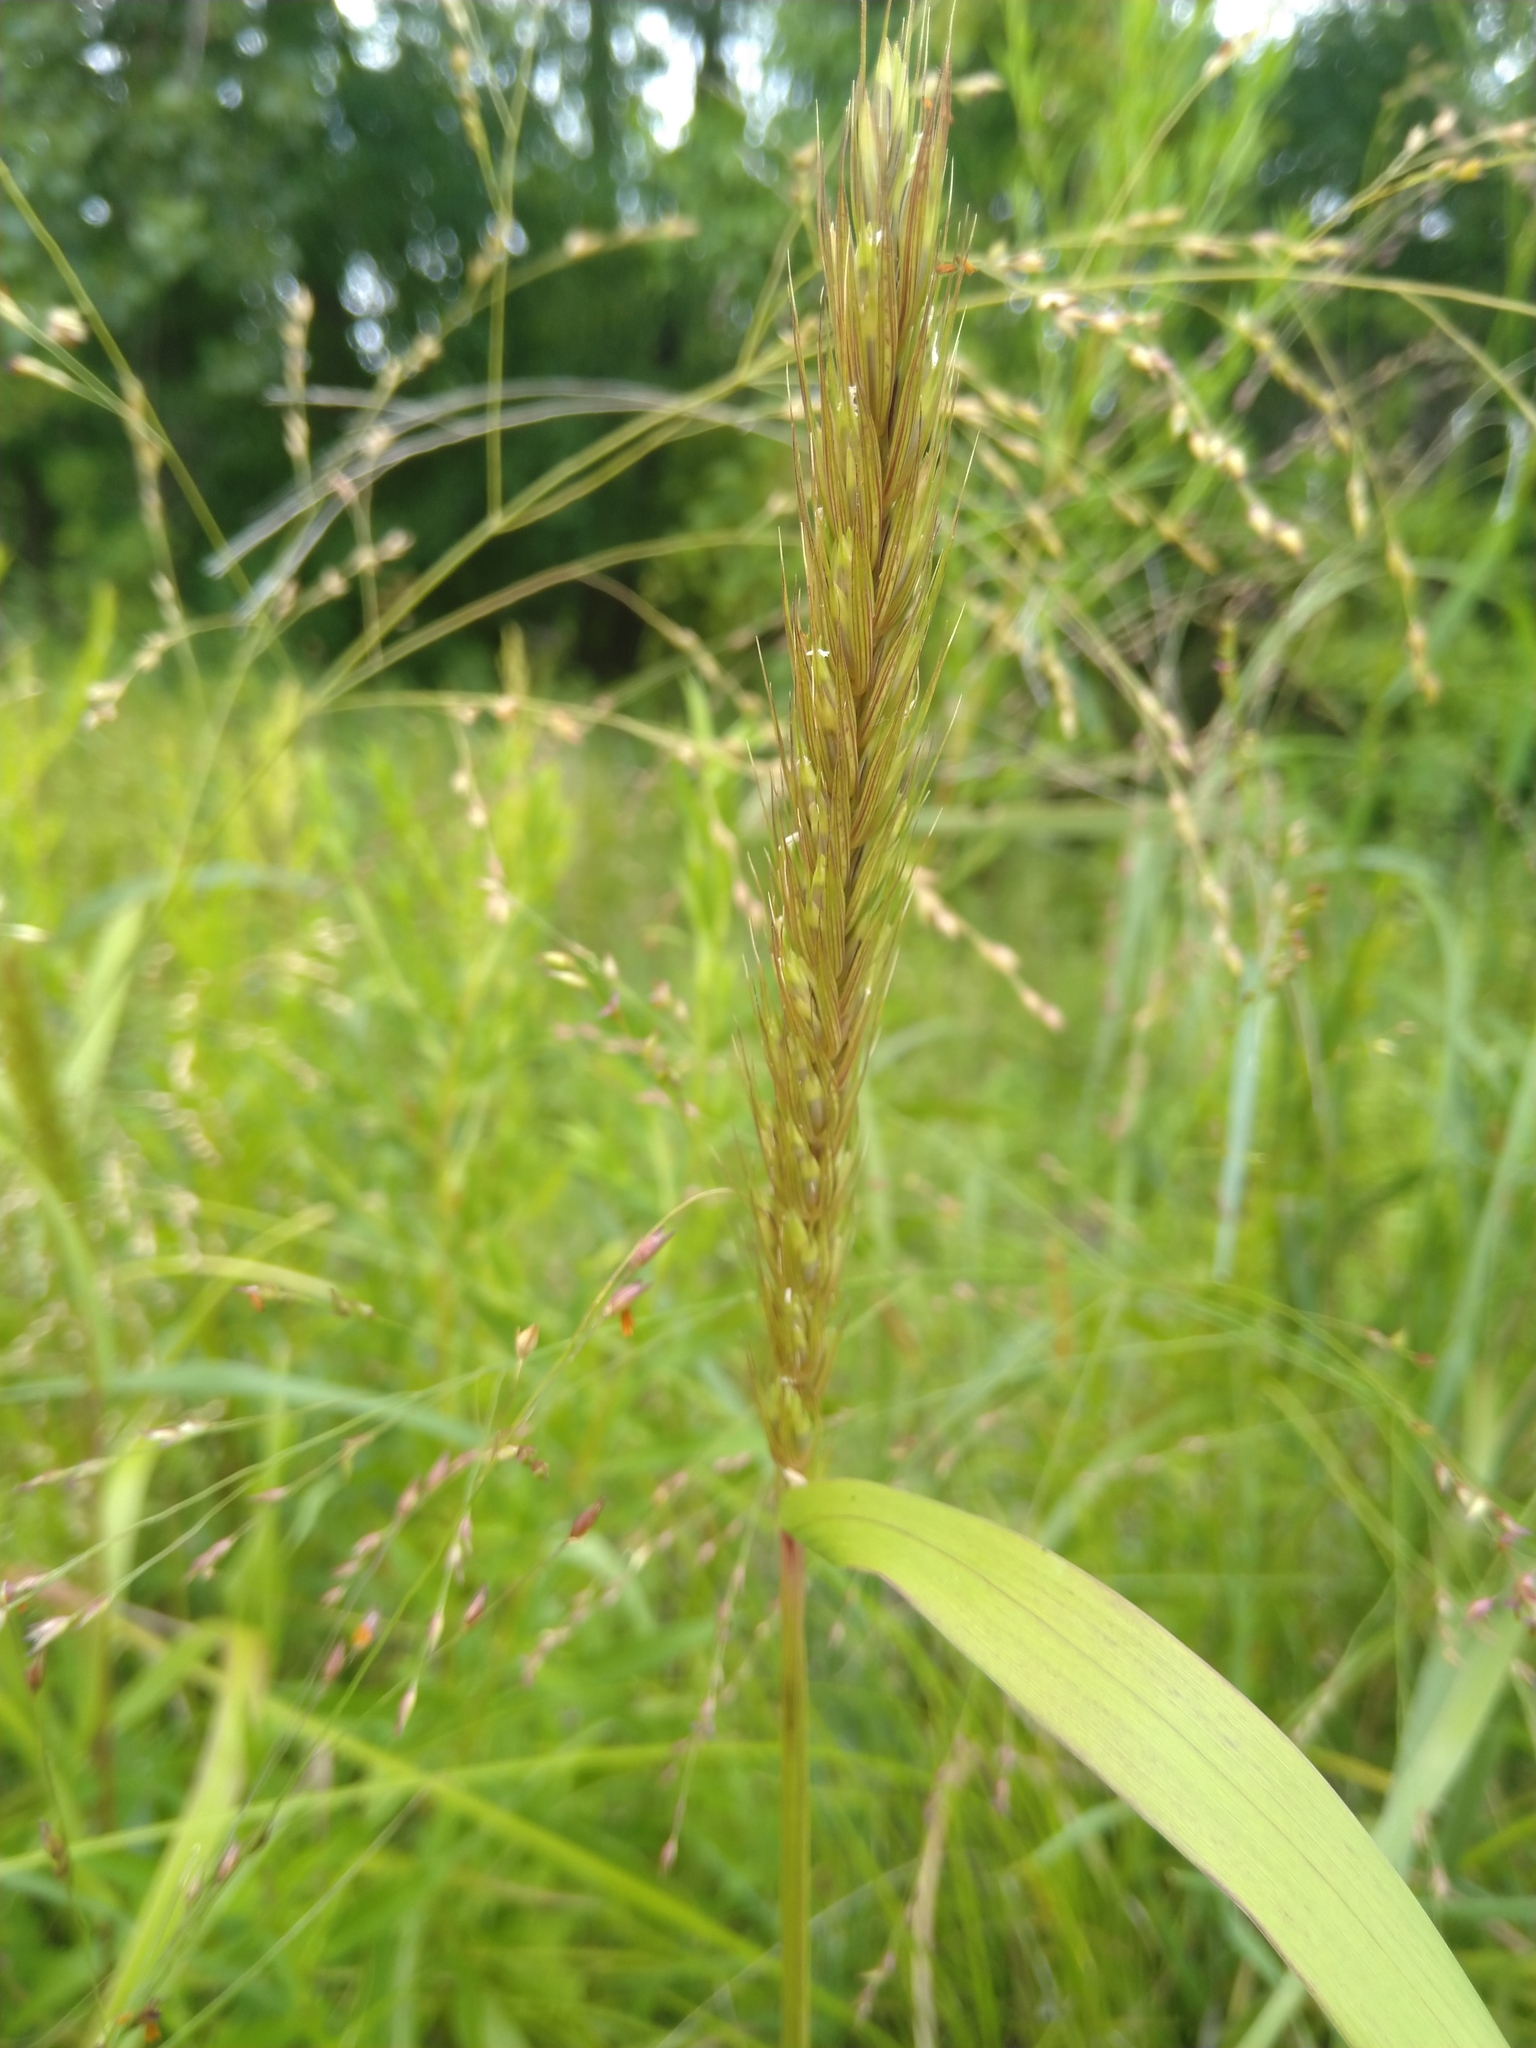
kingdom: Plantae
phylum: Tracheophyta
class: Liliopsida
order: Poales
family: Poaceae
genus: Elymus
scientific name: Elymus virginicus
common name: Common eastern wildrye
